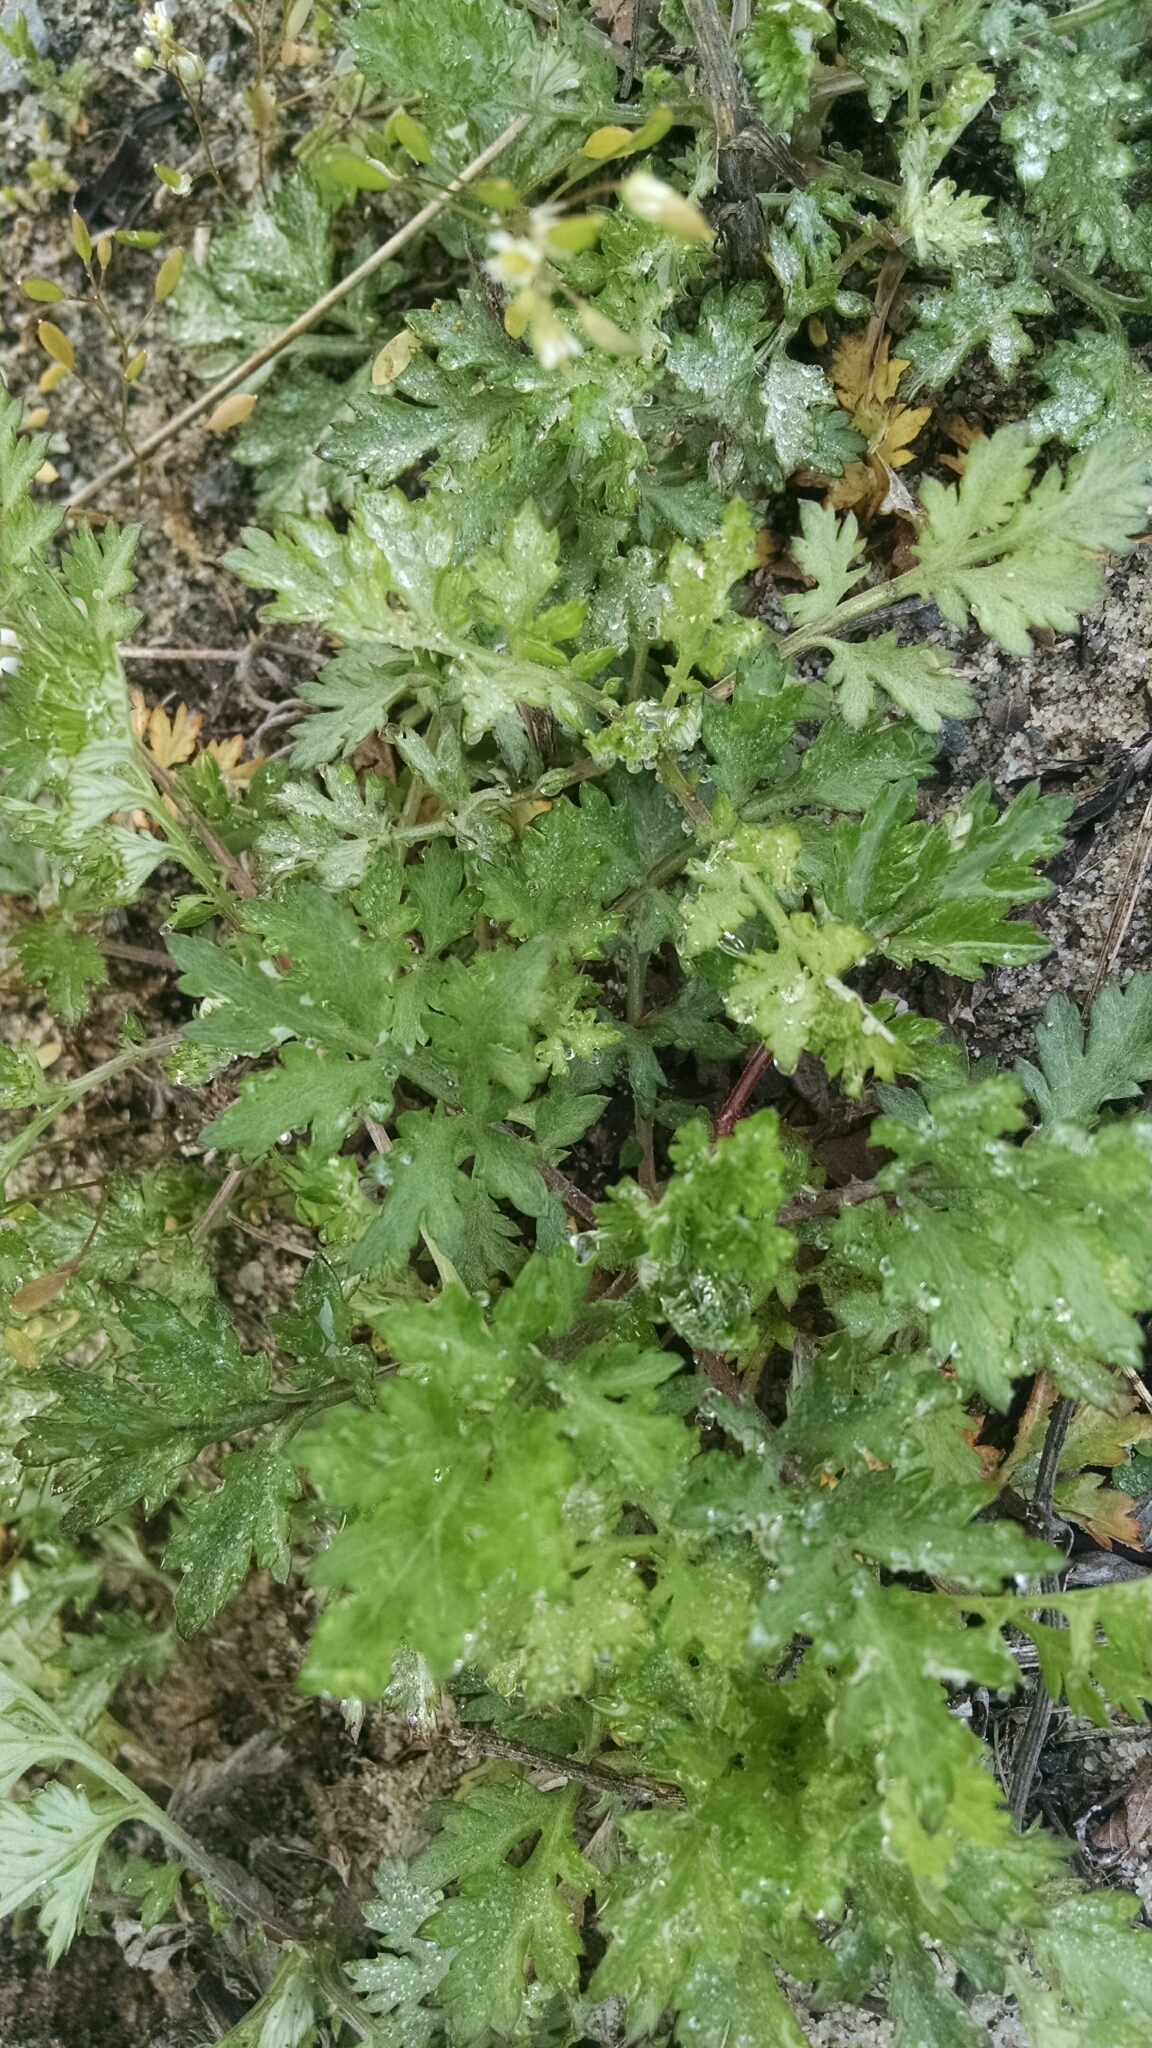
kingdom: Plantae
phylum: Tracheophyta
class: Magnoliopsida
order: Asterales
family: Asteraceae
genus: Artemisia
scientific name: Artemisia vulgaris
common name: Mugwort
